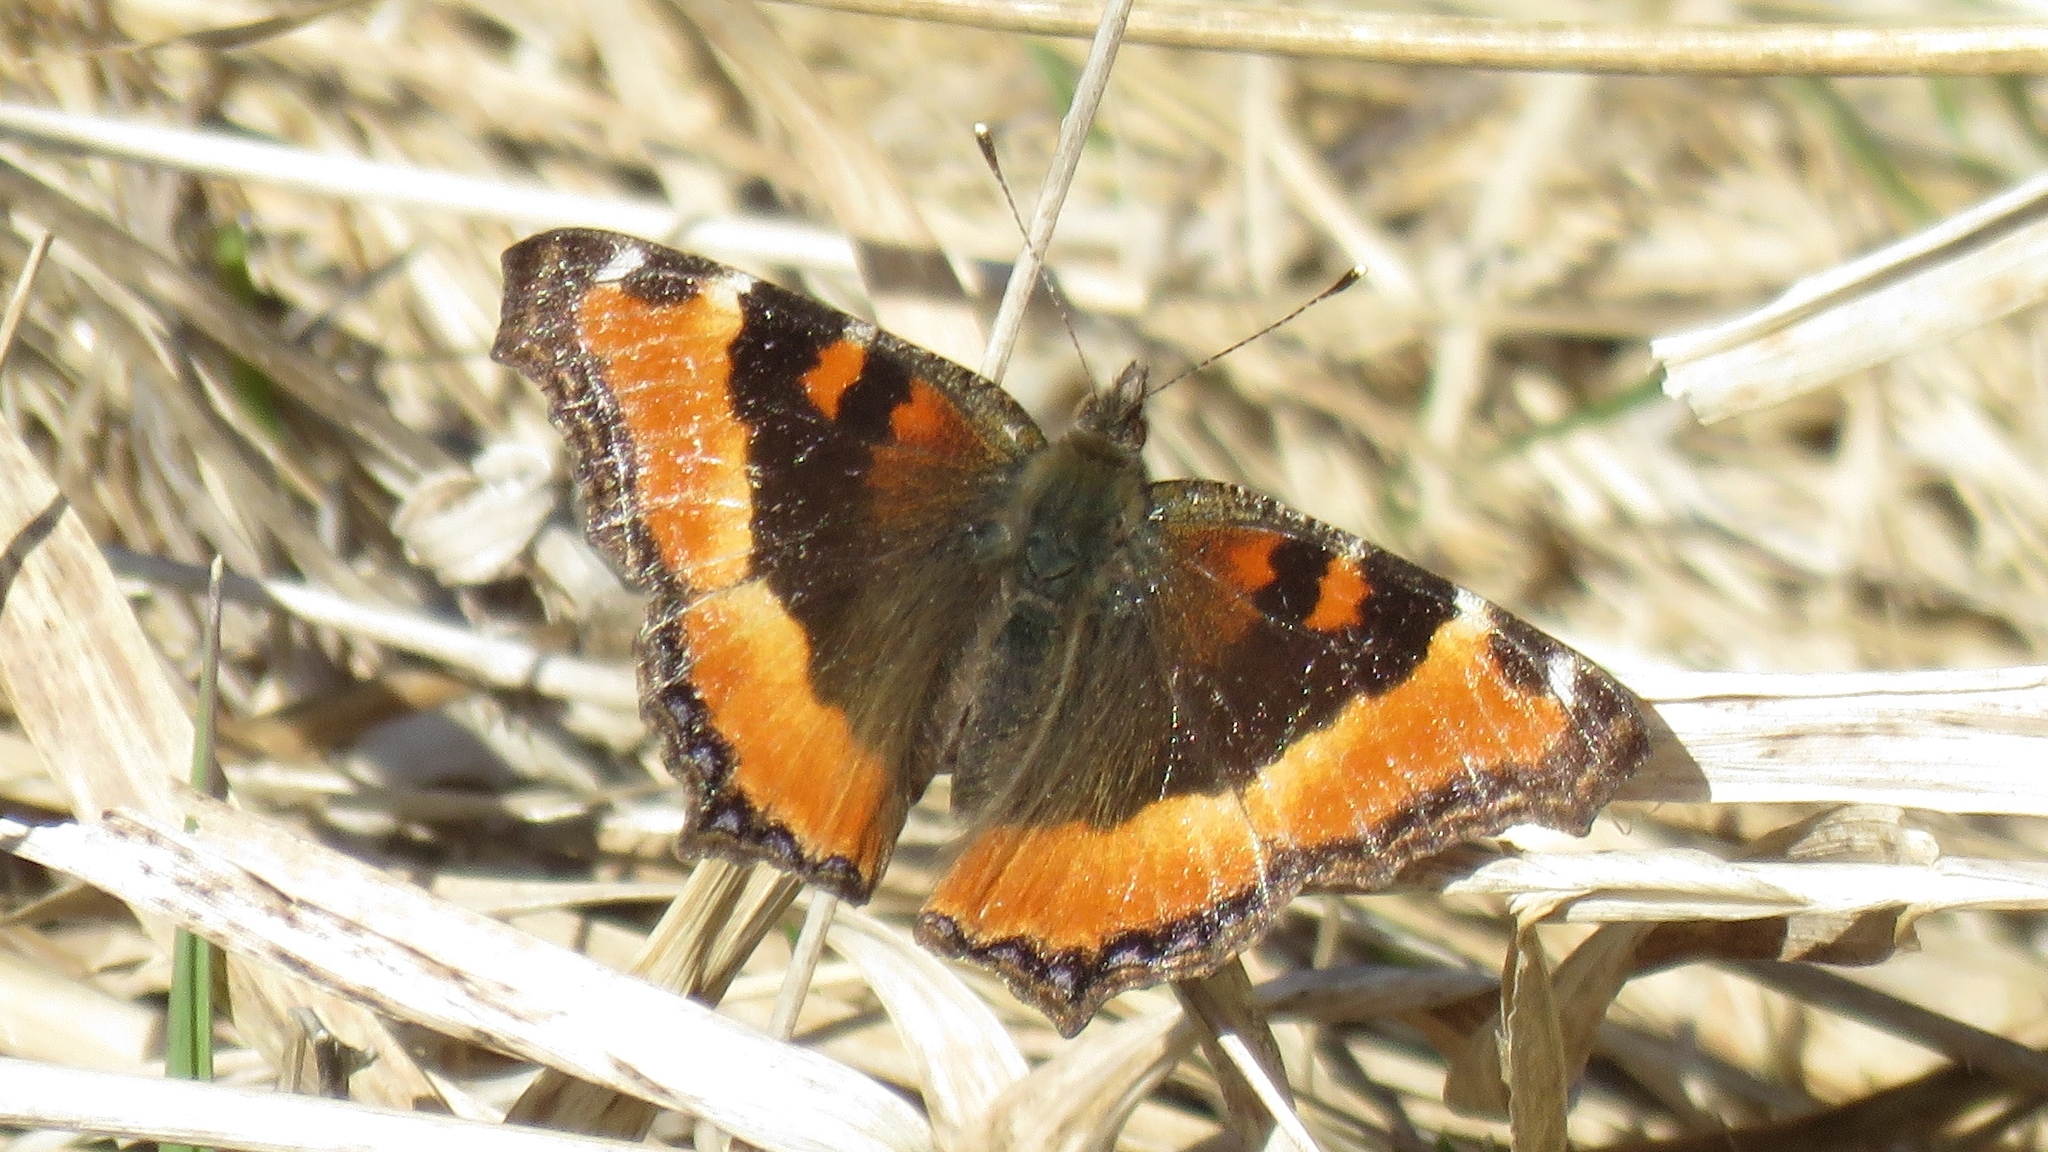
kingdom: Animalia
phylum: Arthropoda
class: Insecta
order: Lepidoptera
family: Nymphalidae
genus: Aglais
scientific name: Aglais milberti
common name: Milbert's tortoiseshell
